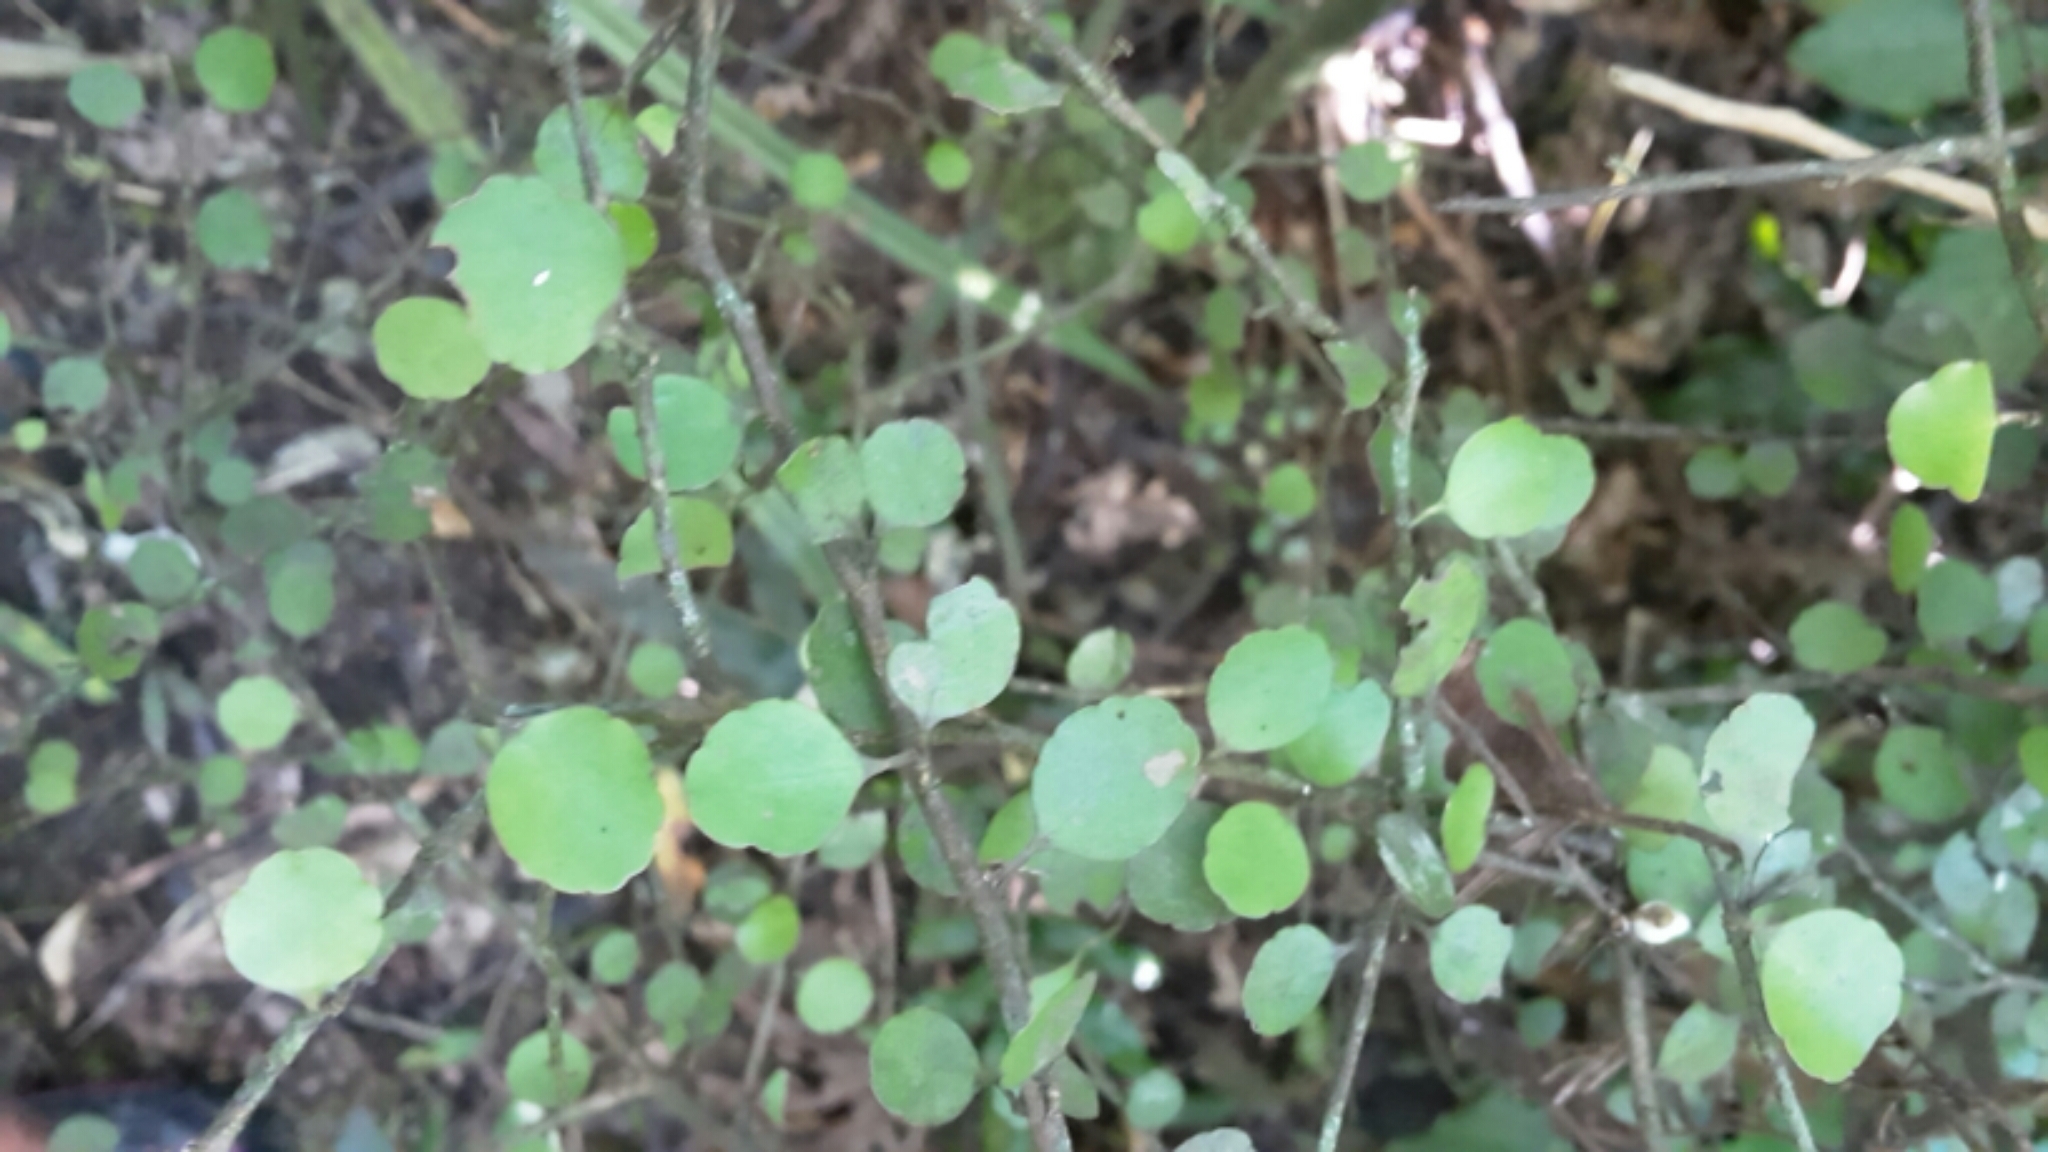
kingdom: Plantae
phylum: Tracheophyta
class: Magnoliopsida
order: Apiales
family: Araliaceae
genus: Raukaua
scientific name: Raukaua anomalus
